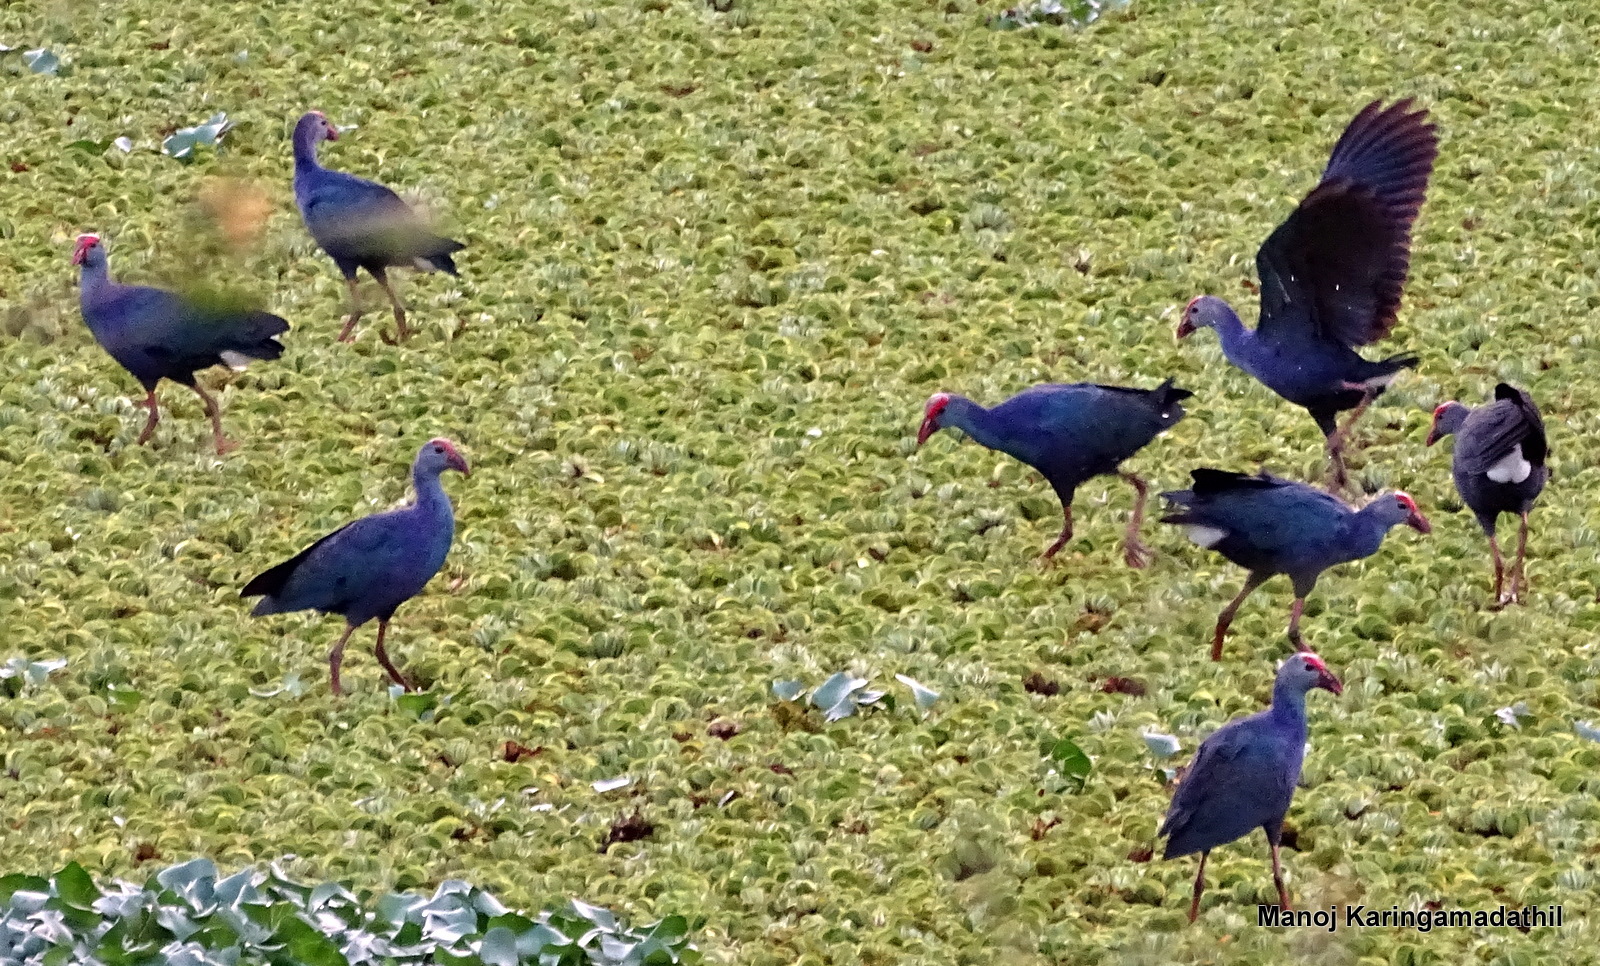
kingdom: Animalia
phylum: Chordata
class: Aves
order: Gruiformes
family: Rallidae
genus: Porphyrio
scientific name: Porphyrio porphyrio
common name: Purple swamphen
